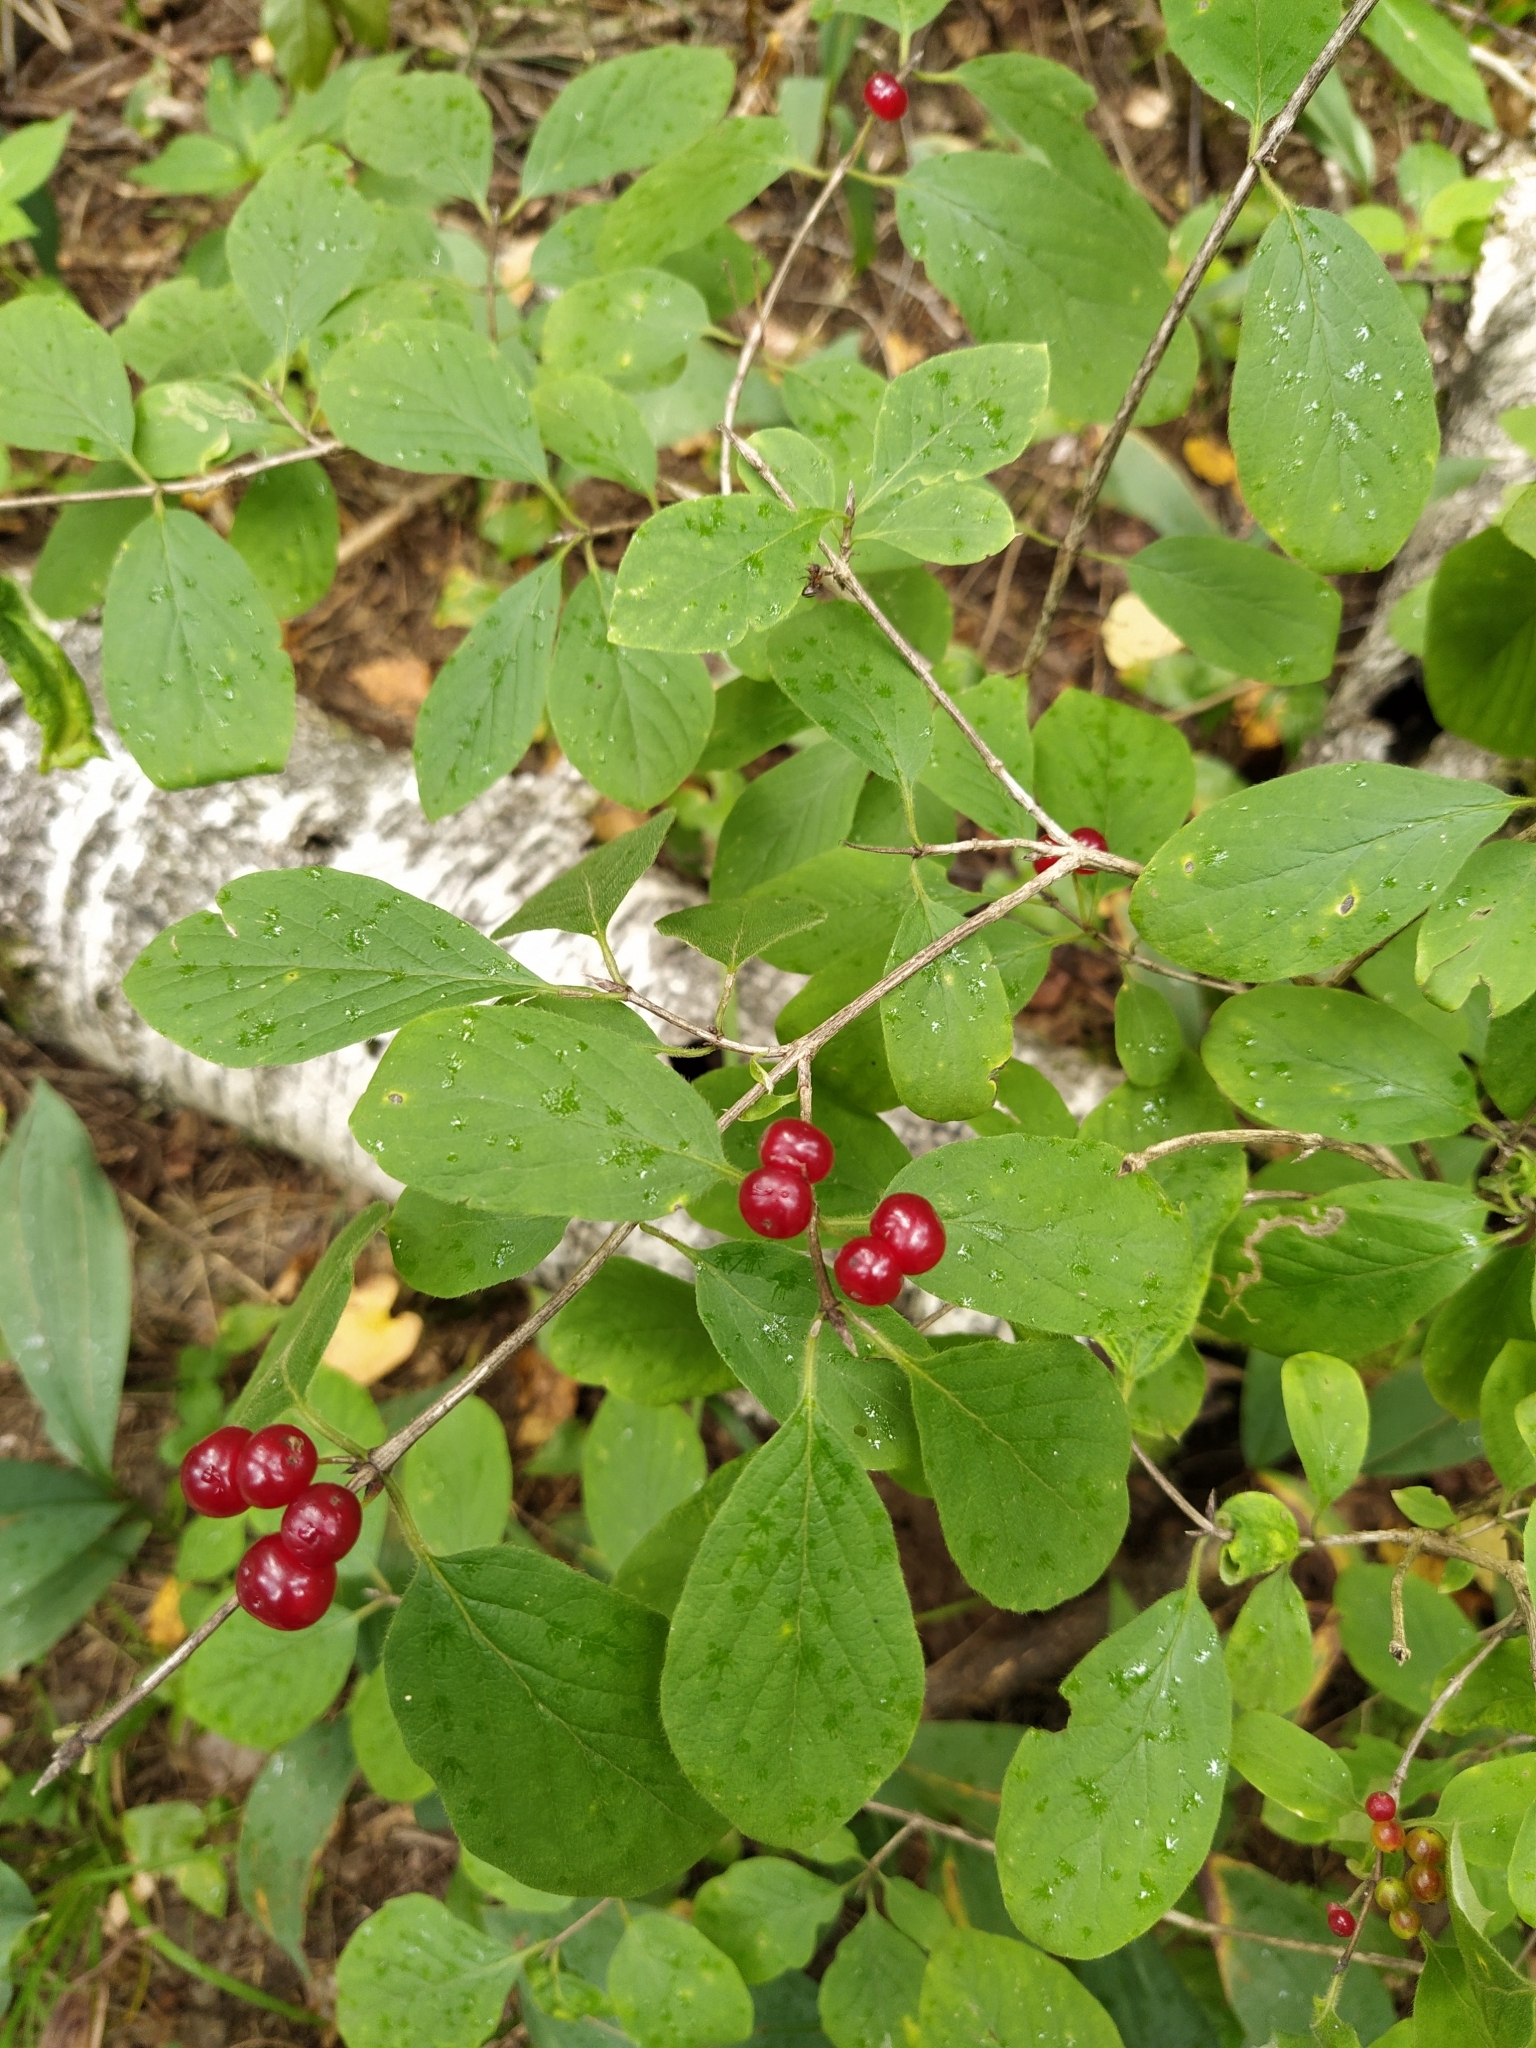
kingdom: Plantae
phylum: Tracheophyta
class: Magnoliopsida
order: Dipsacales
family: Caprifoliaceae
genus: Lonicera
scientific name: Lonicera xylosteum
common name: Fly honeysuckle
